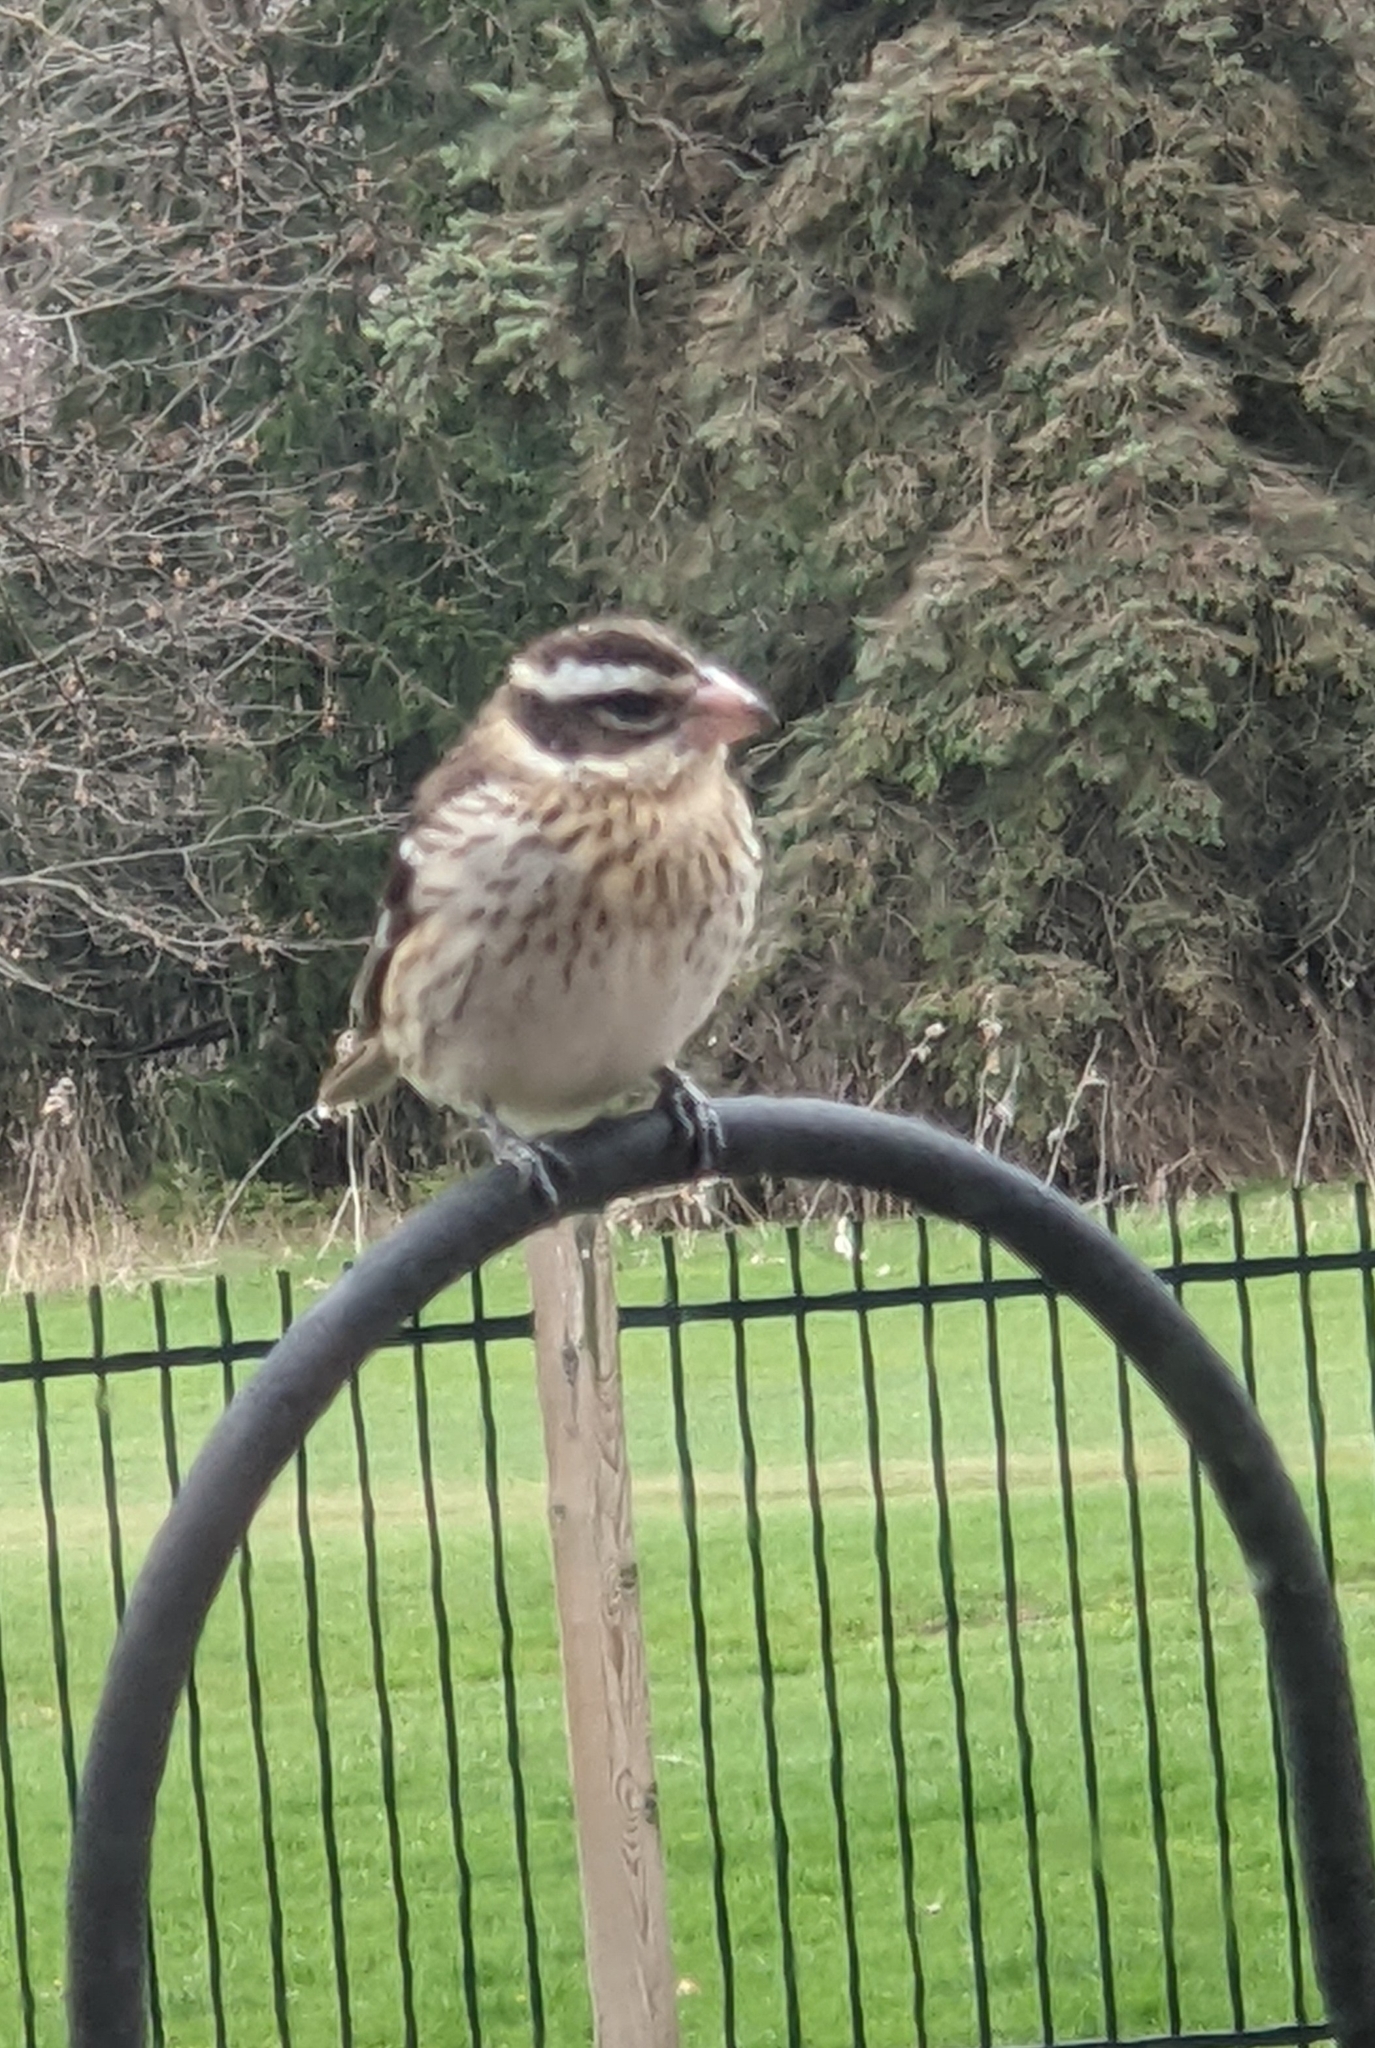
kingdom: Animalia
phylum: Chordata
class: Aves
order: Passeriformes
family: Cardinalidae
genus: Pheucticus
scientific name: Pheucticus ludovicianus
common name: Rose-breasted grosbeak
